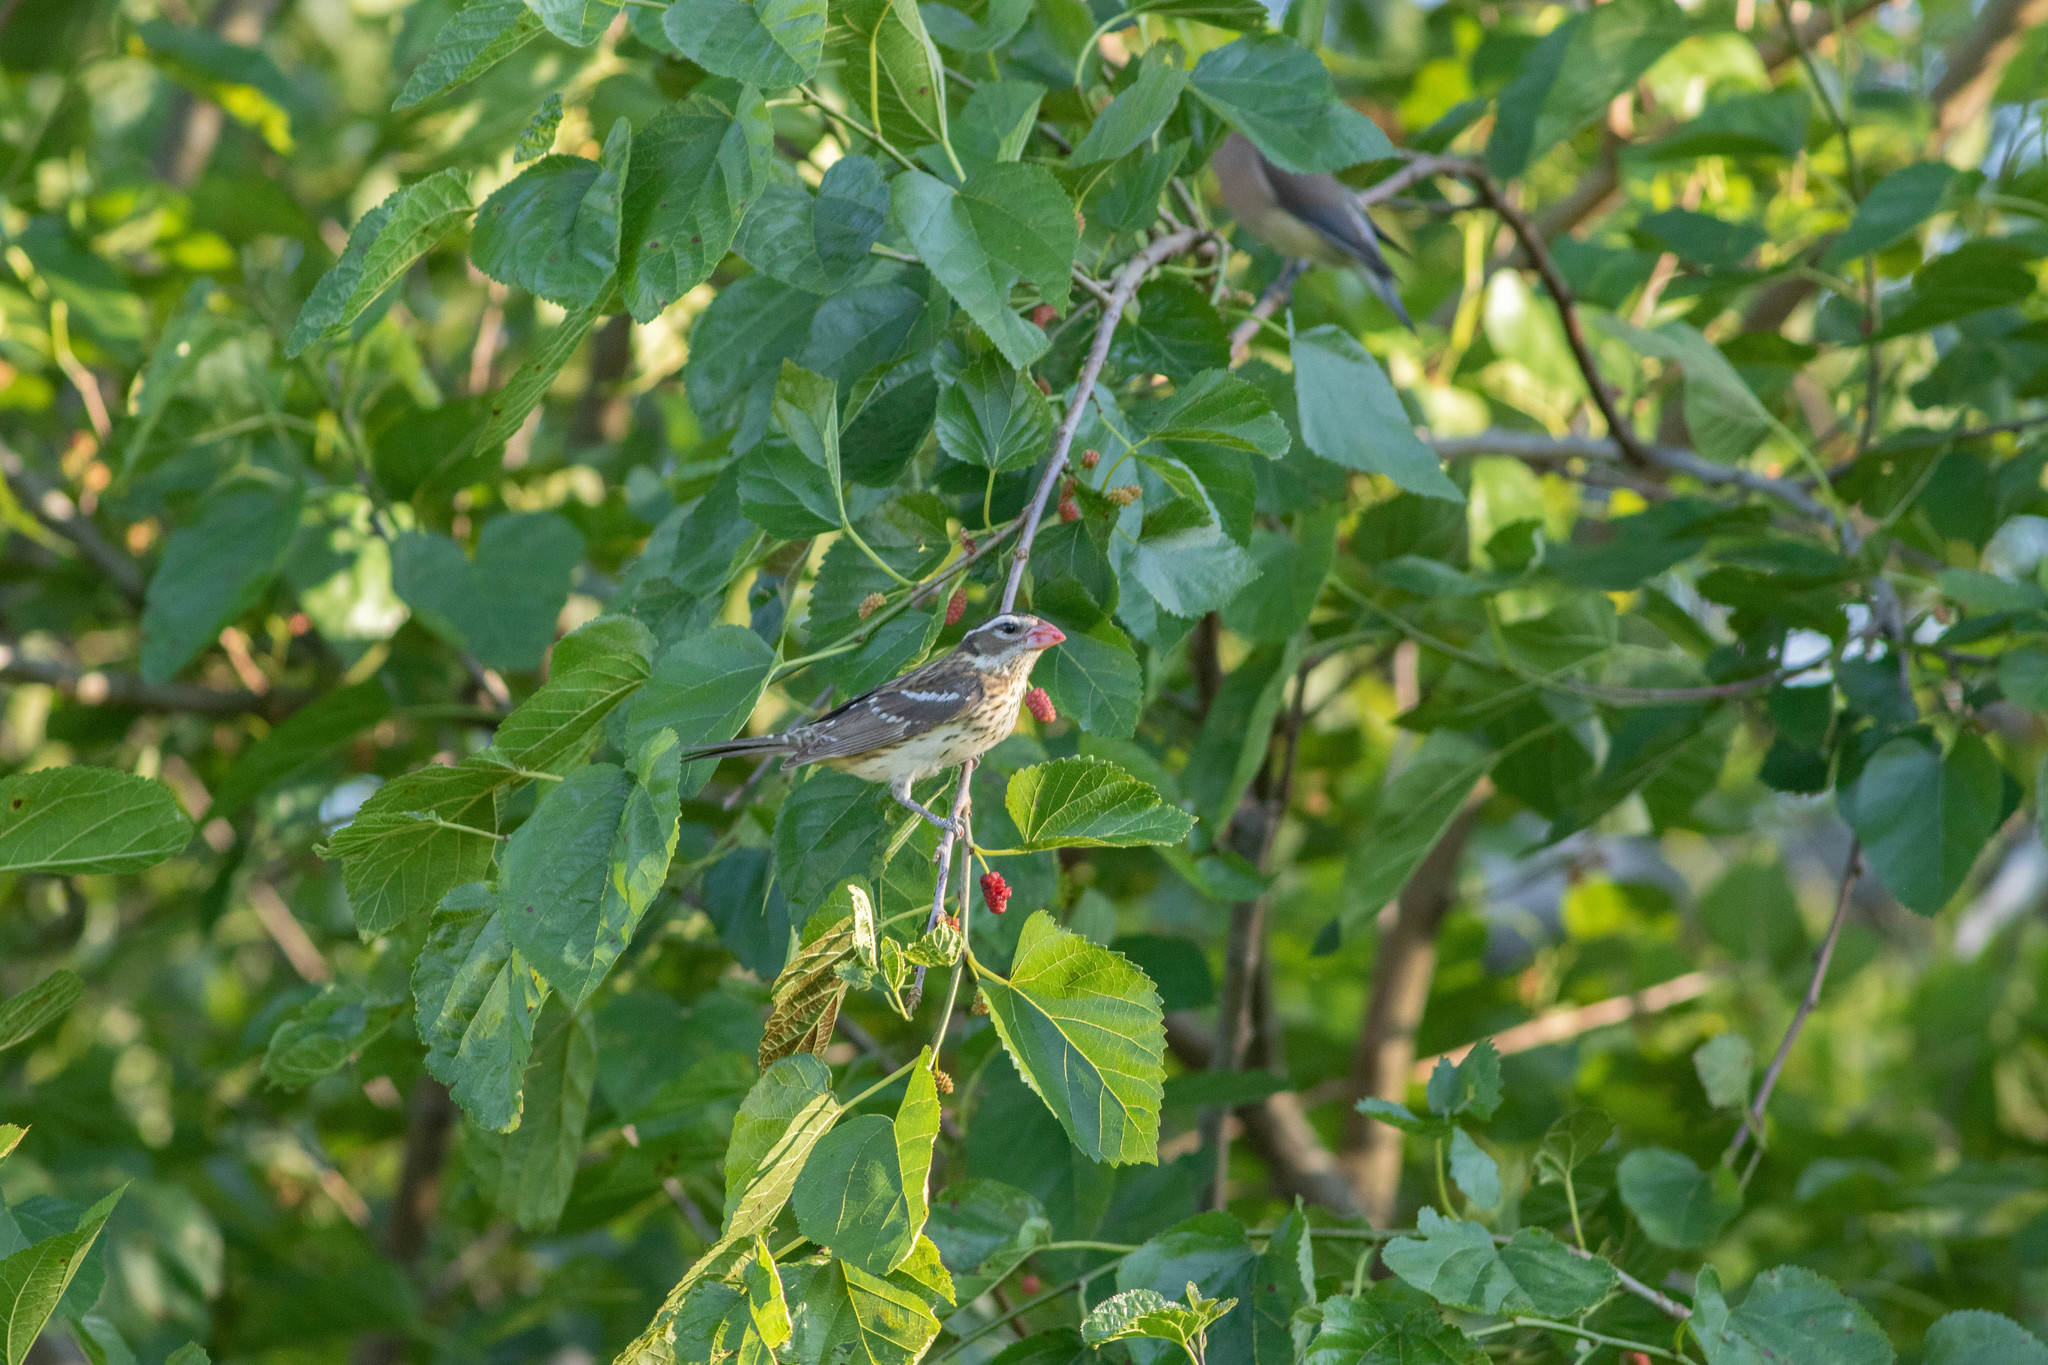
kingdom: Animalia
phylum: Chordata
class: Aves
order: Passeriformes
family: Cardinalidae
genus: Pheucticus
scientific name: Pheucticus ludovicianus
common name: Rose-breasted grosbeak
